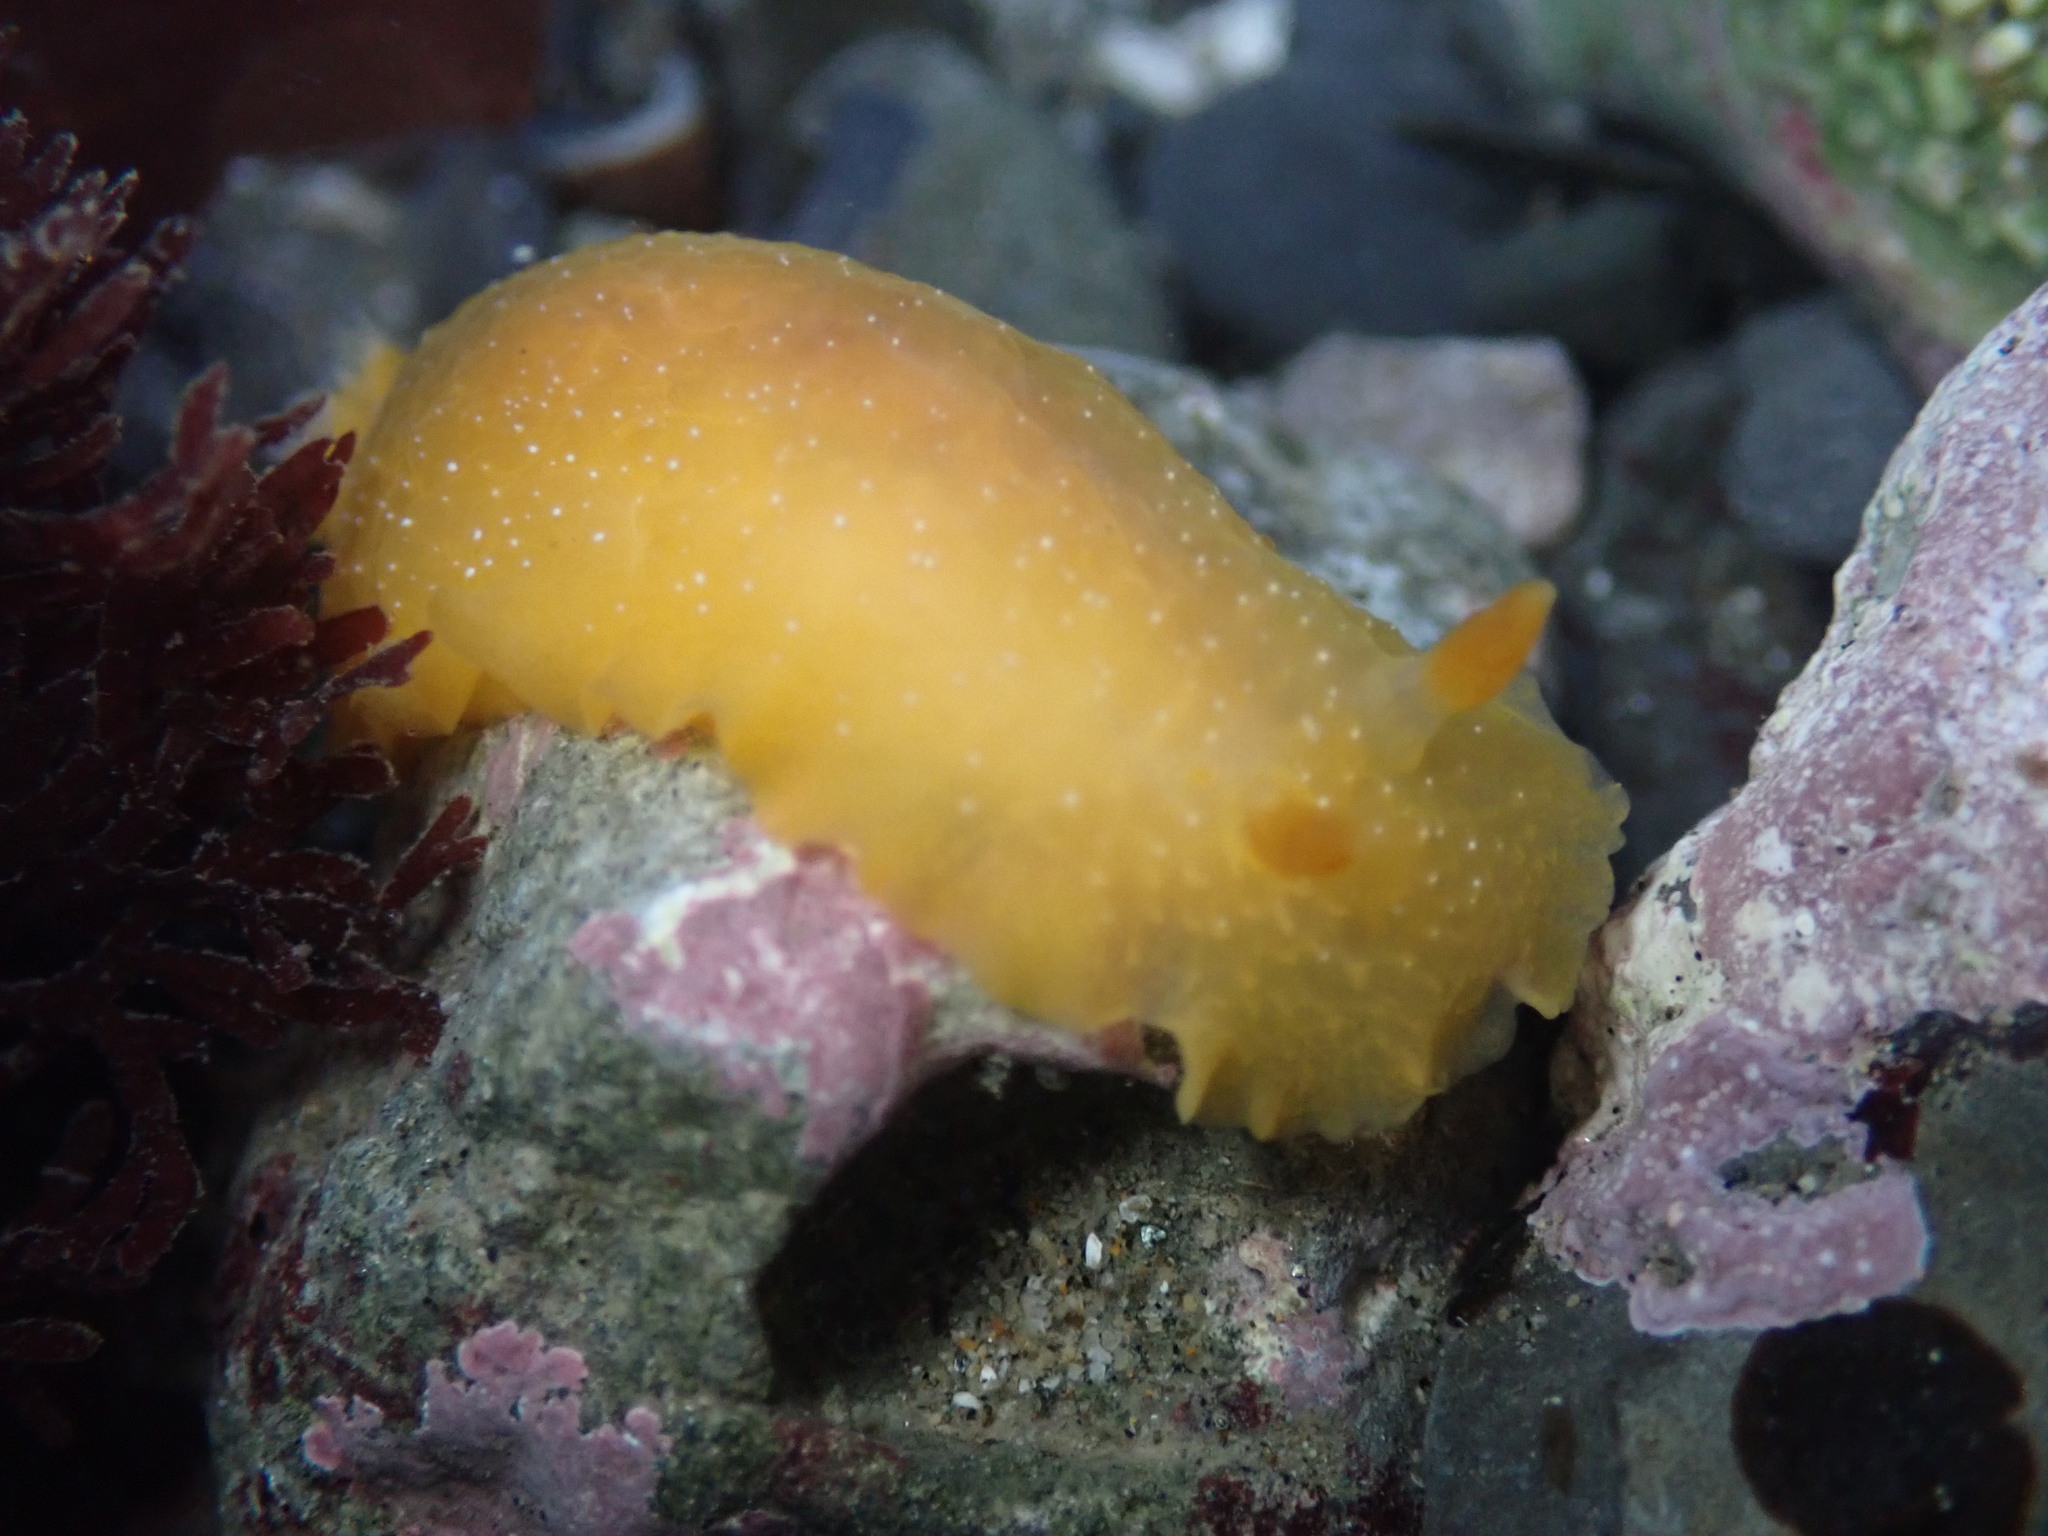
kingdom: Animalia
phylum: Mollusca
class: Gastropoda
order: Nudibranchia
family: Dendrodorididae
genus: Doriopsilla
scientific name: Doriopsilla fulva
